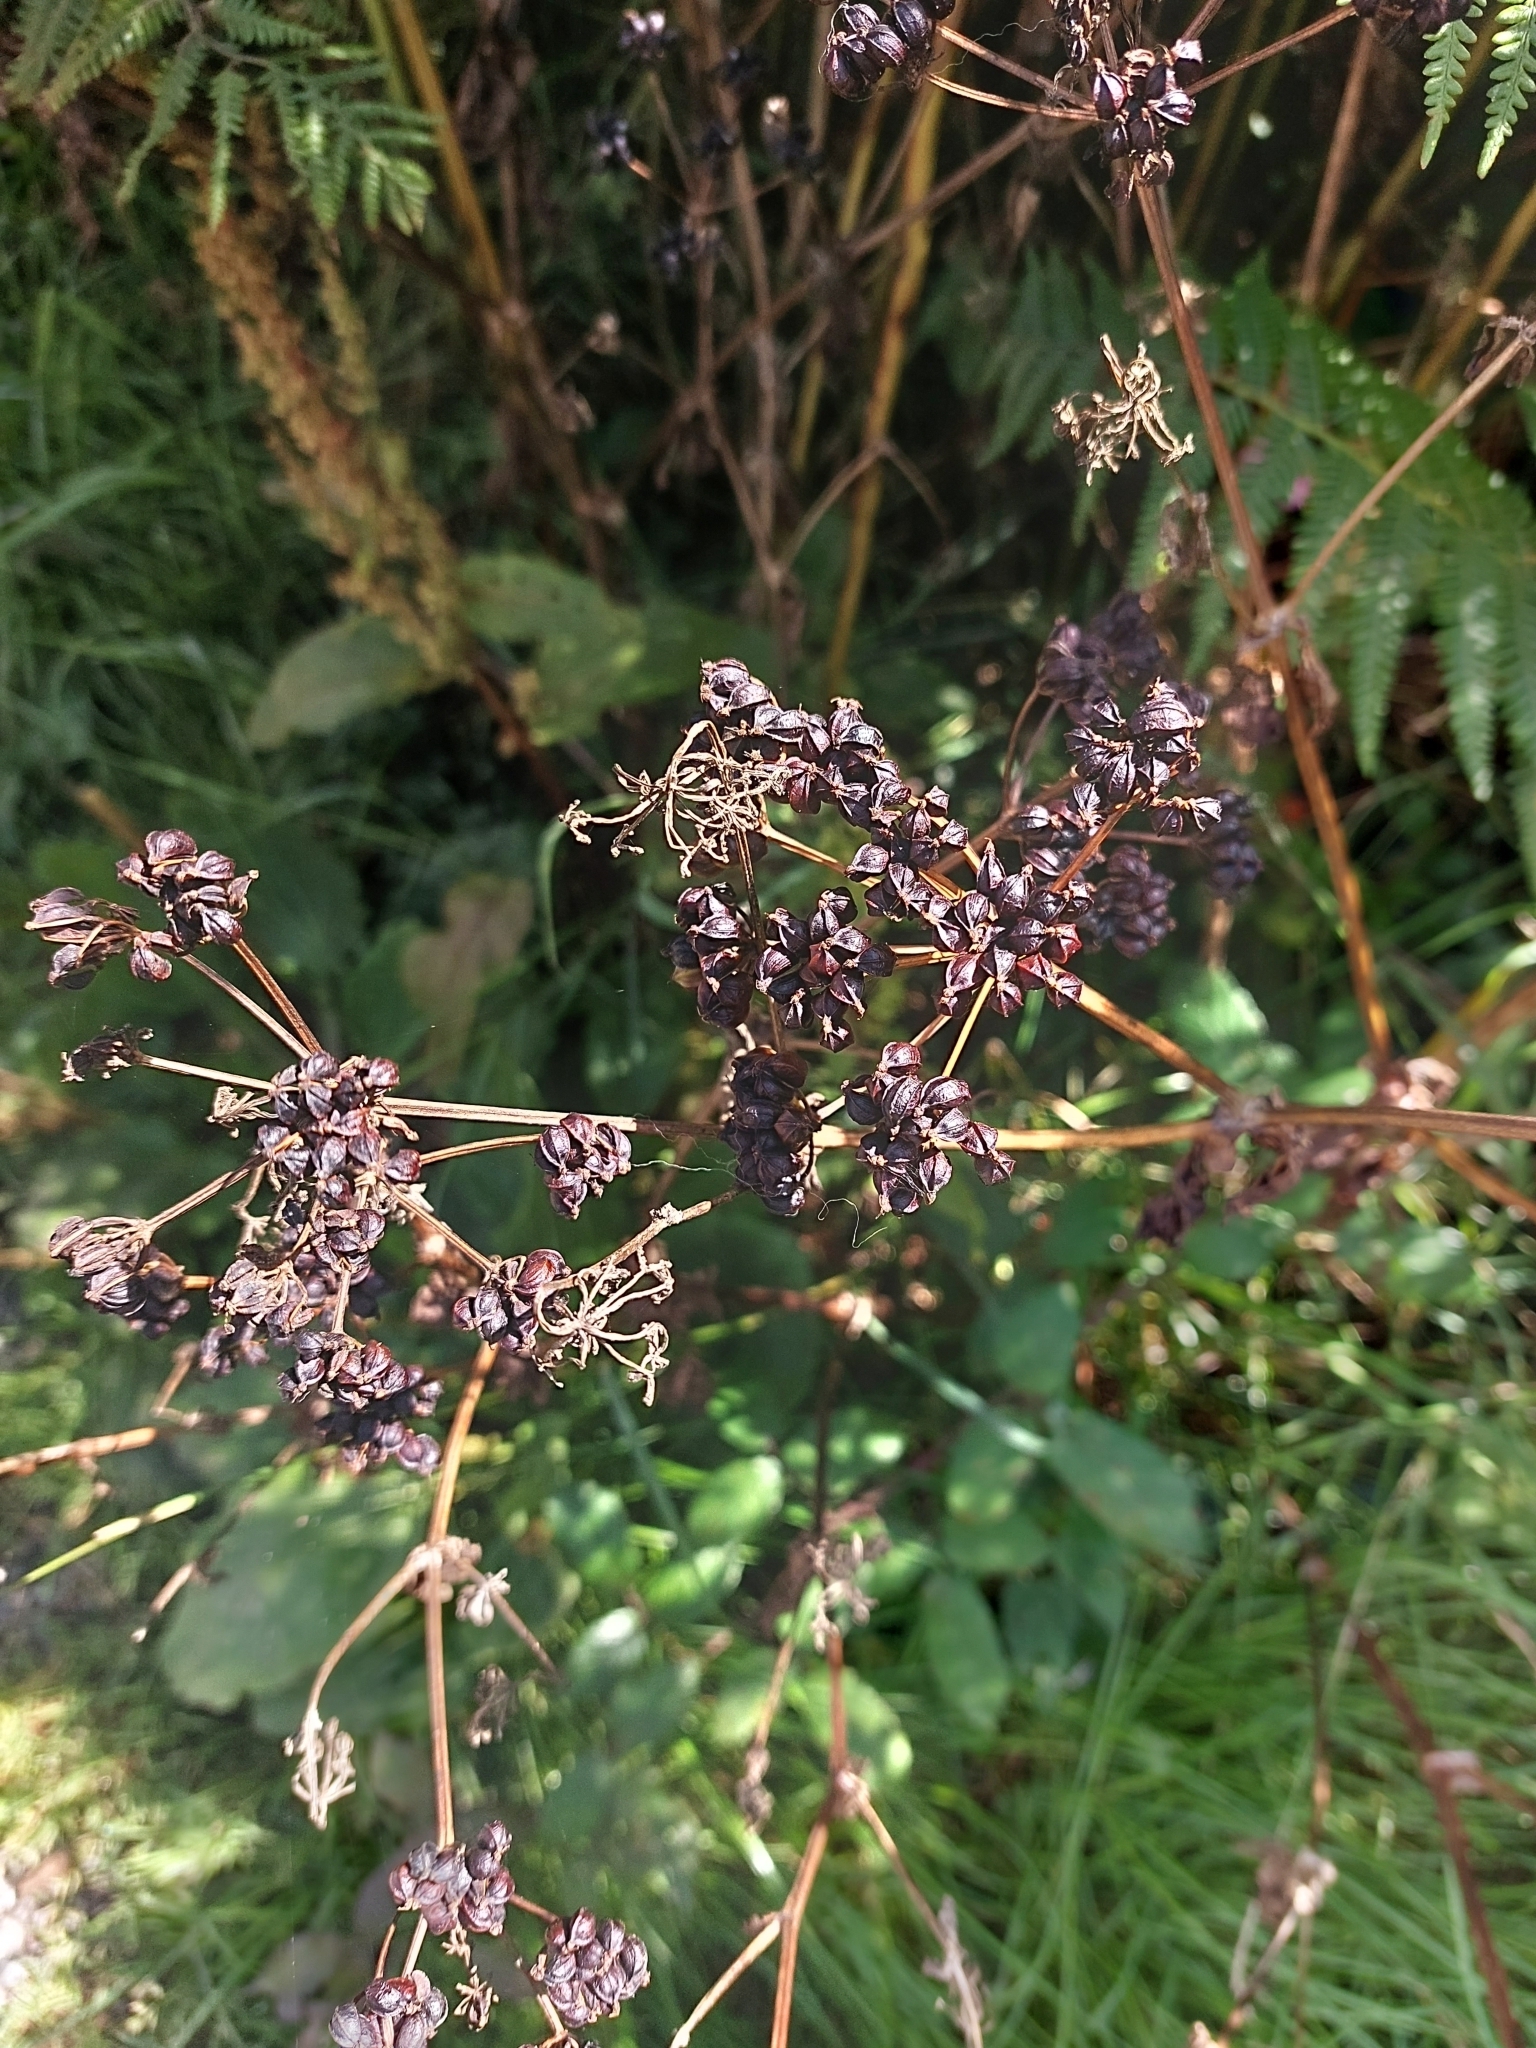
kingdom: Plantae
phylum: Tracheophyta
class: Magnoliopsida
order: Apiales
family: Apiaceae
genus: Smyrnium
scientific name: Smyrnium olusatrum
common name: Alexanders
